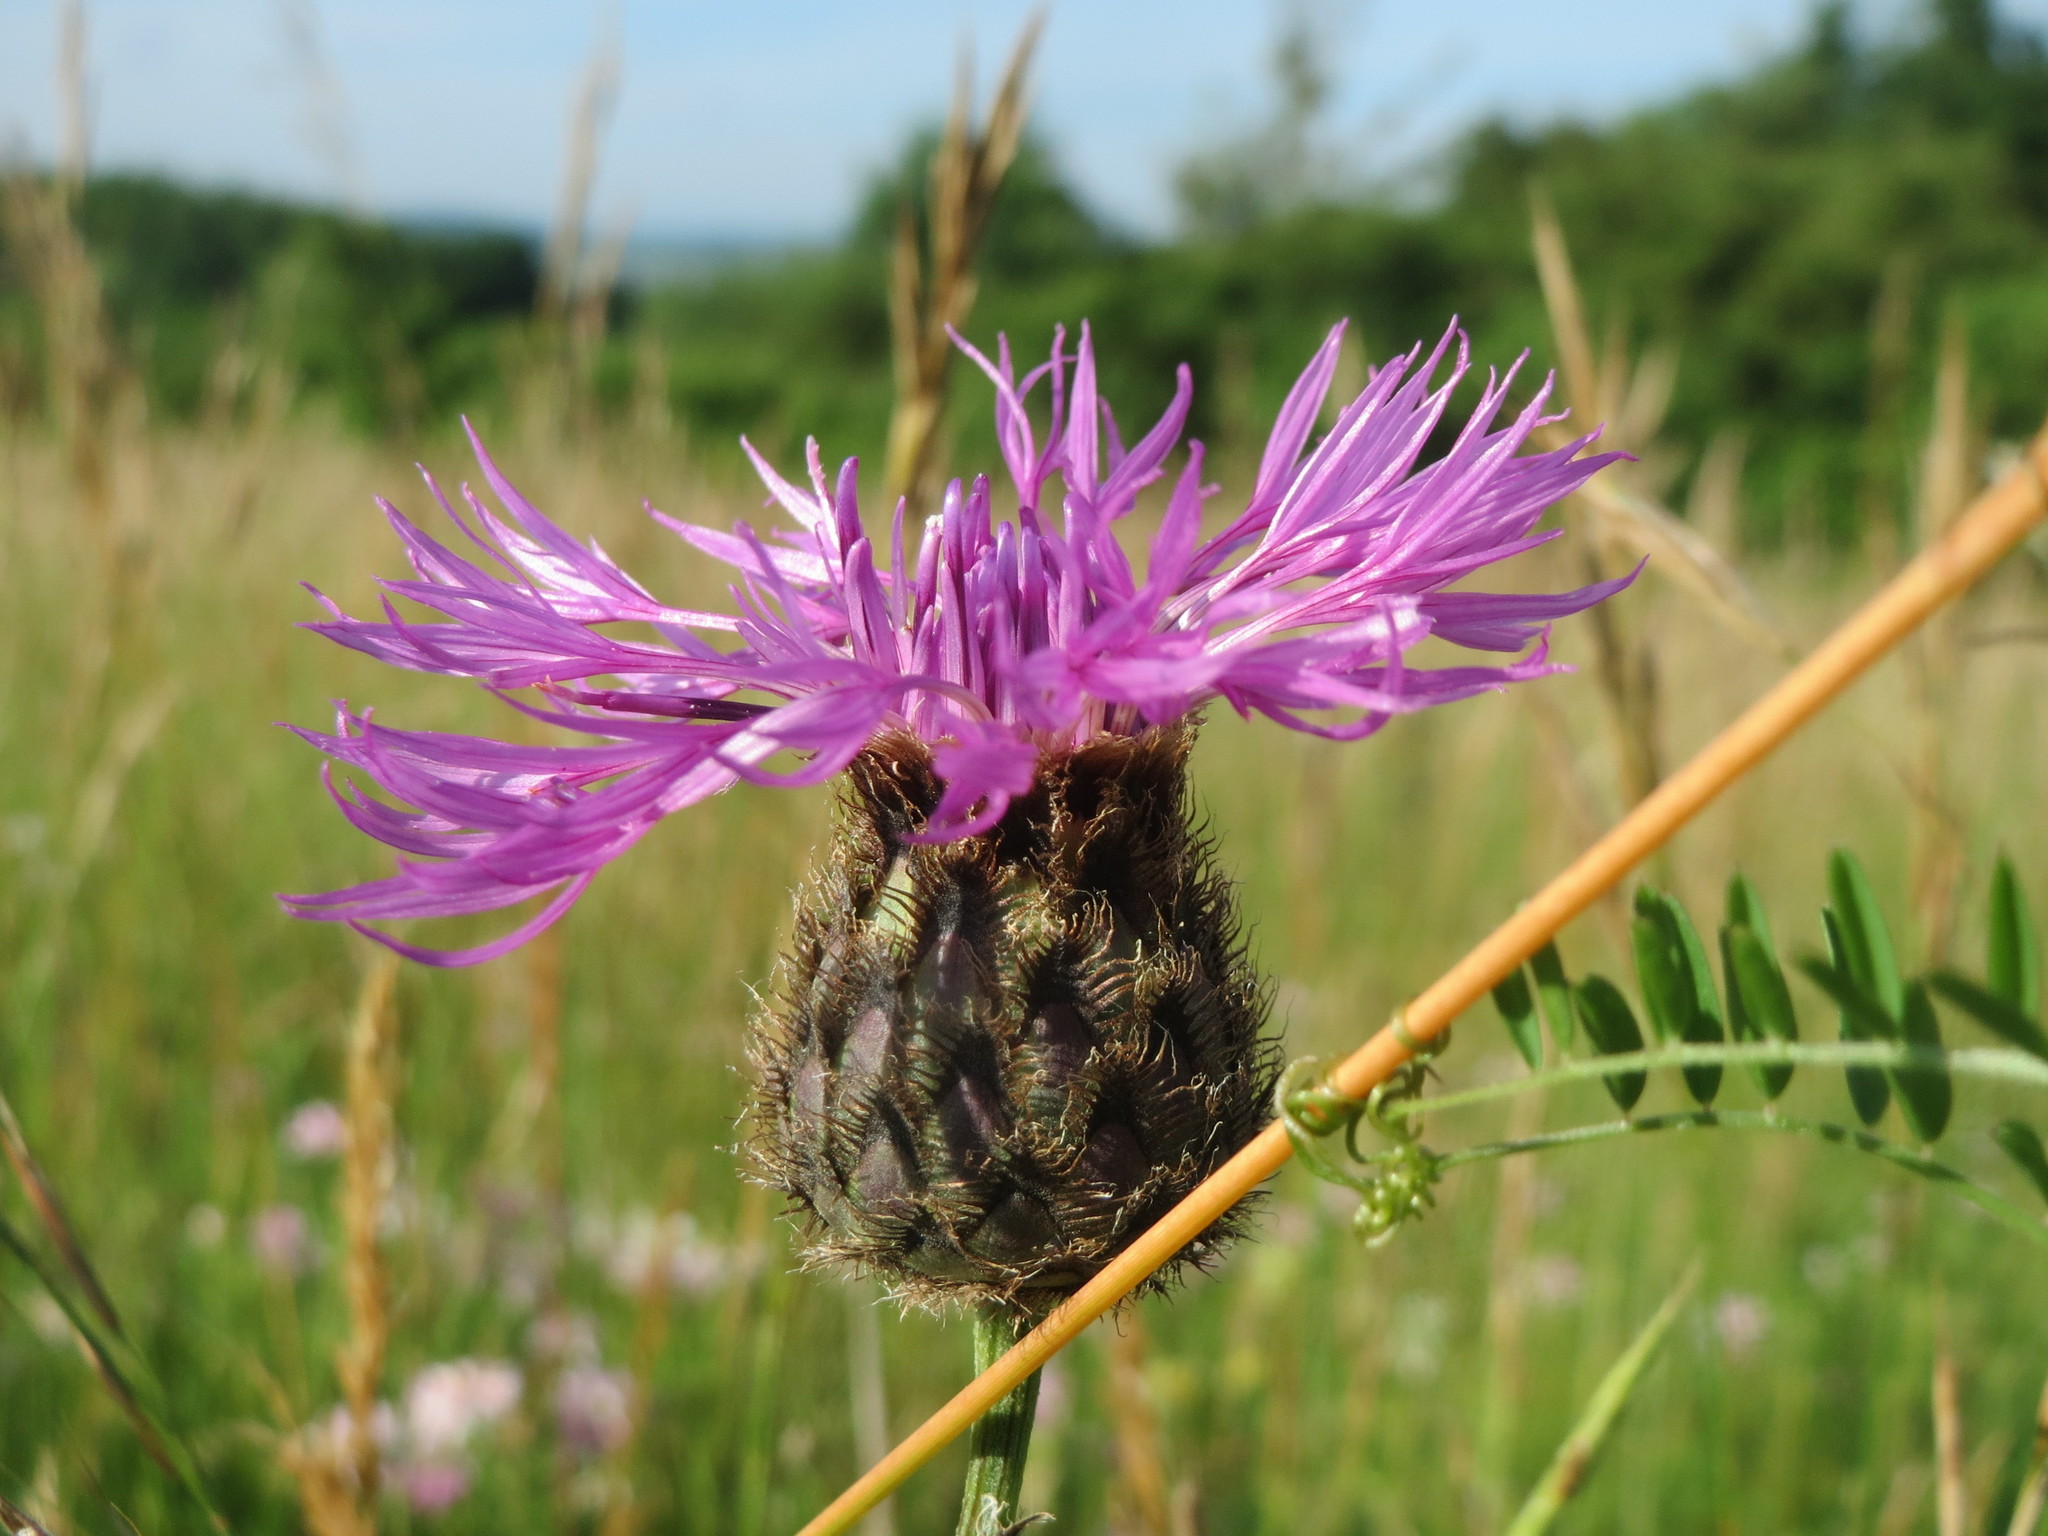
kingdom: Plantae
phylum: Tracheophyta
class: Magnoliopsida
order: Asterales
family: Asteraceae
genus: Centaurea
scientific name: Centaurea scabiosa
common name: Greater knapweed
